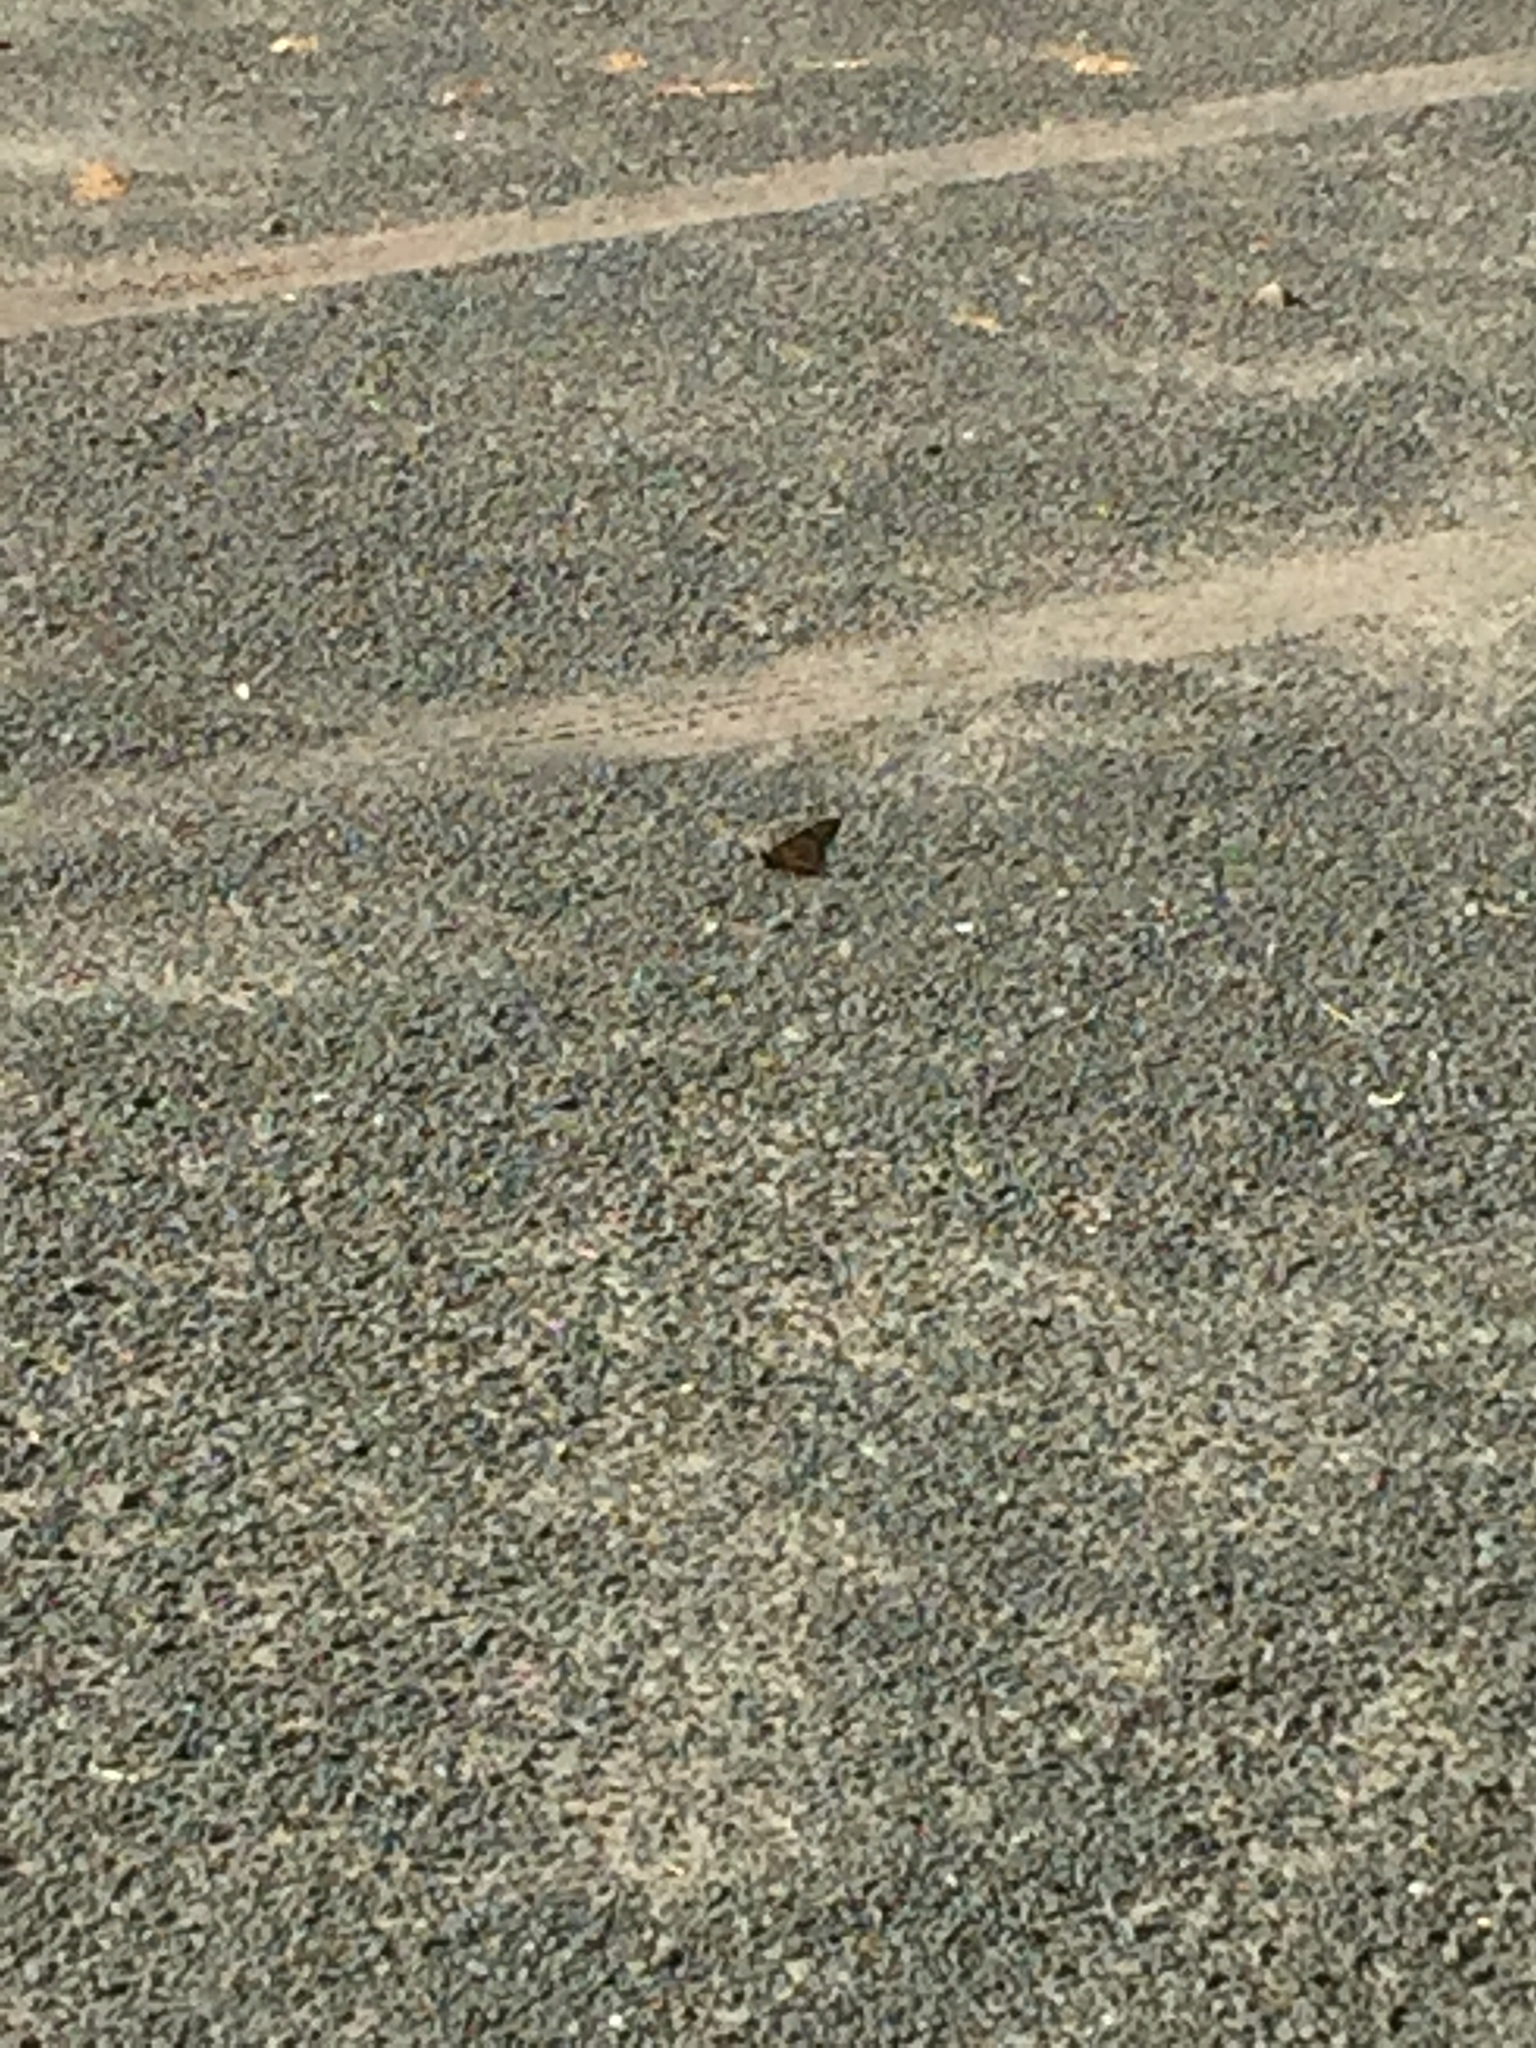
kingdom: Animalia
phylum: Arthropoda
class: Insecta
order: Lepidoptera
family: Nymphalidae
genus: Danaus
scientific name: Danaus plexippus
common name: Monarch
